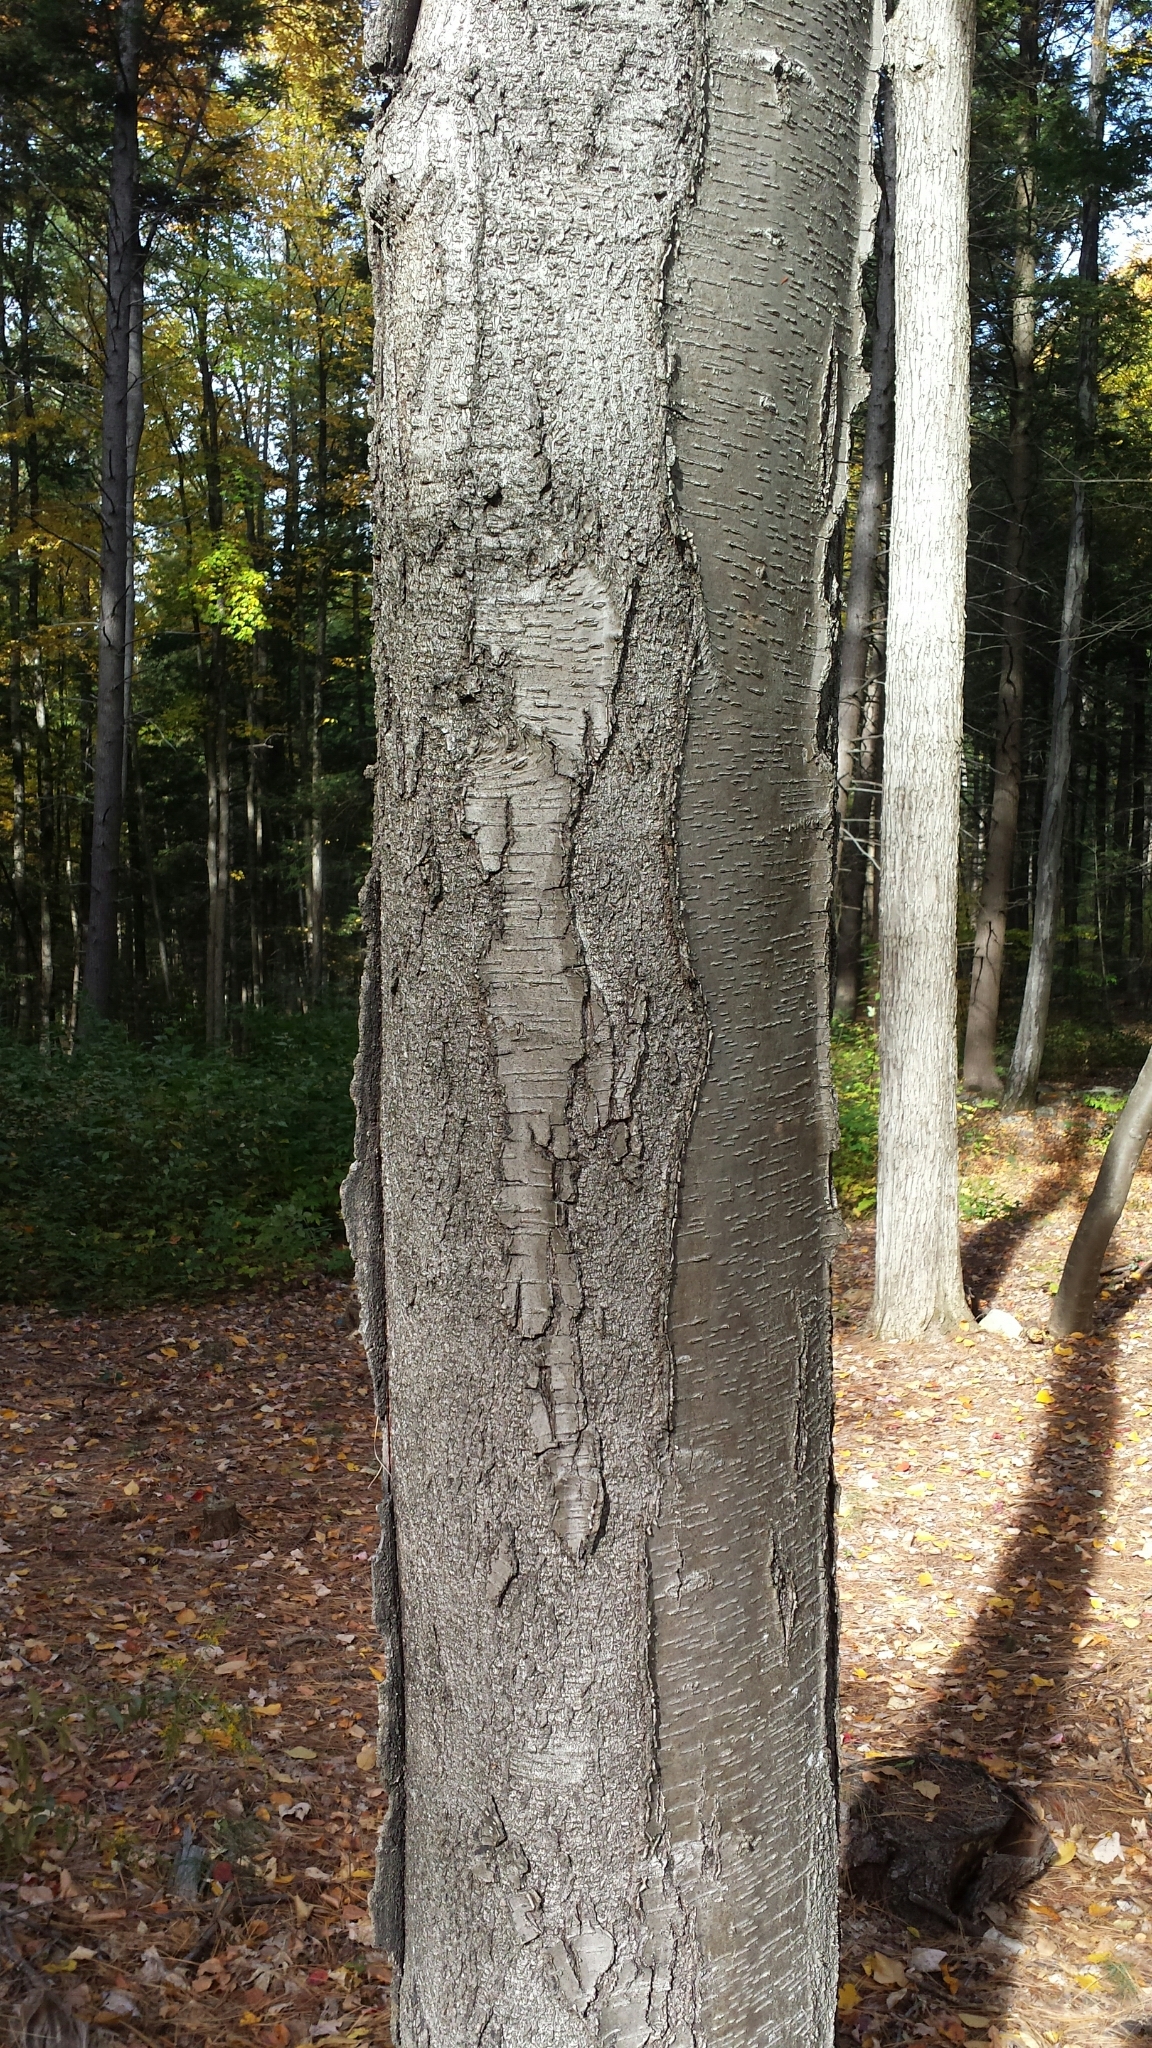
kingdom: Plantae
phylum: Tracheophyta
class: Magnoliopsida
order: Fagales
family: Betulaceae
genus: Betula
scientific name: Betula lenta
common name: Black birch
